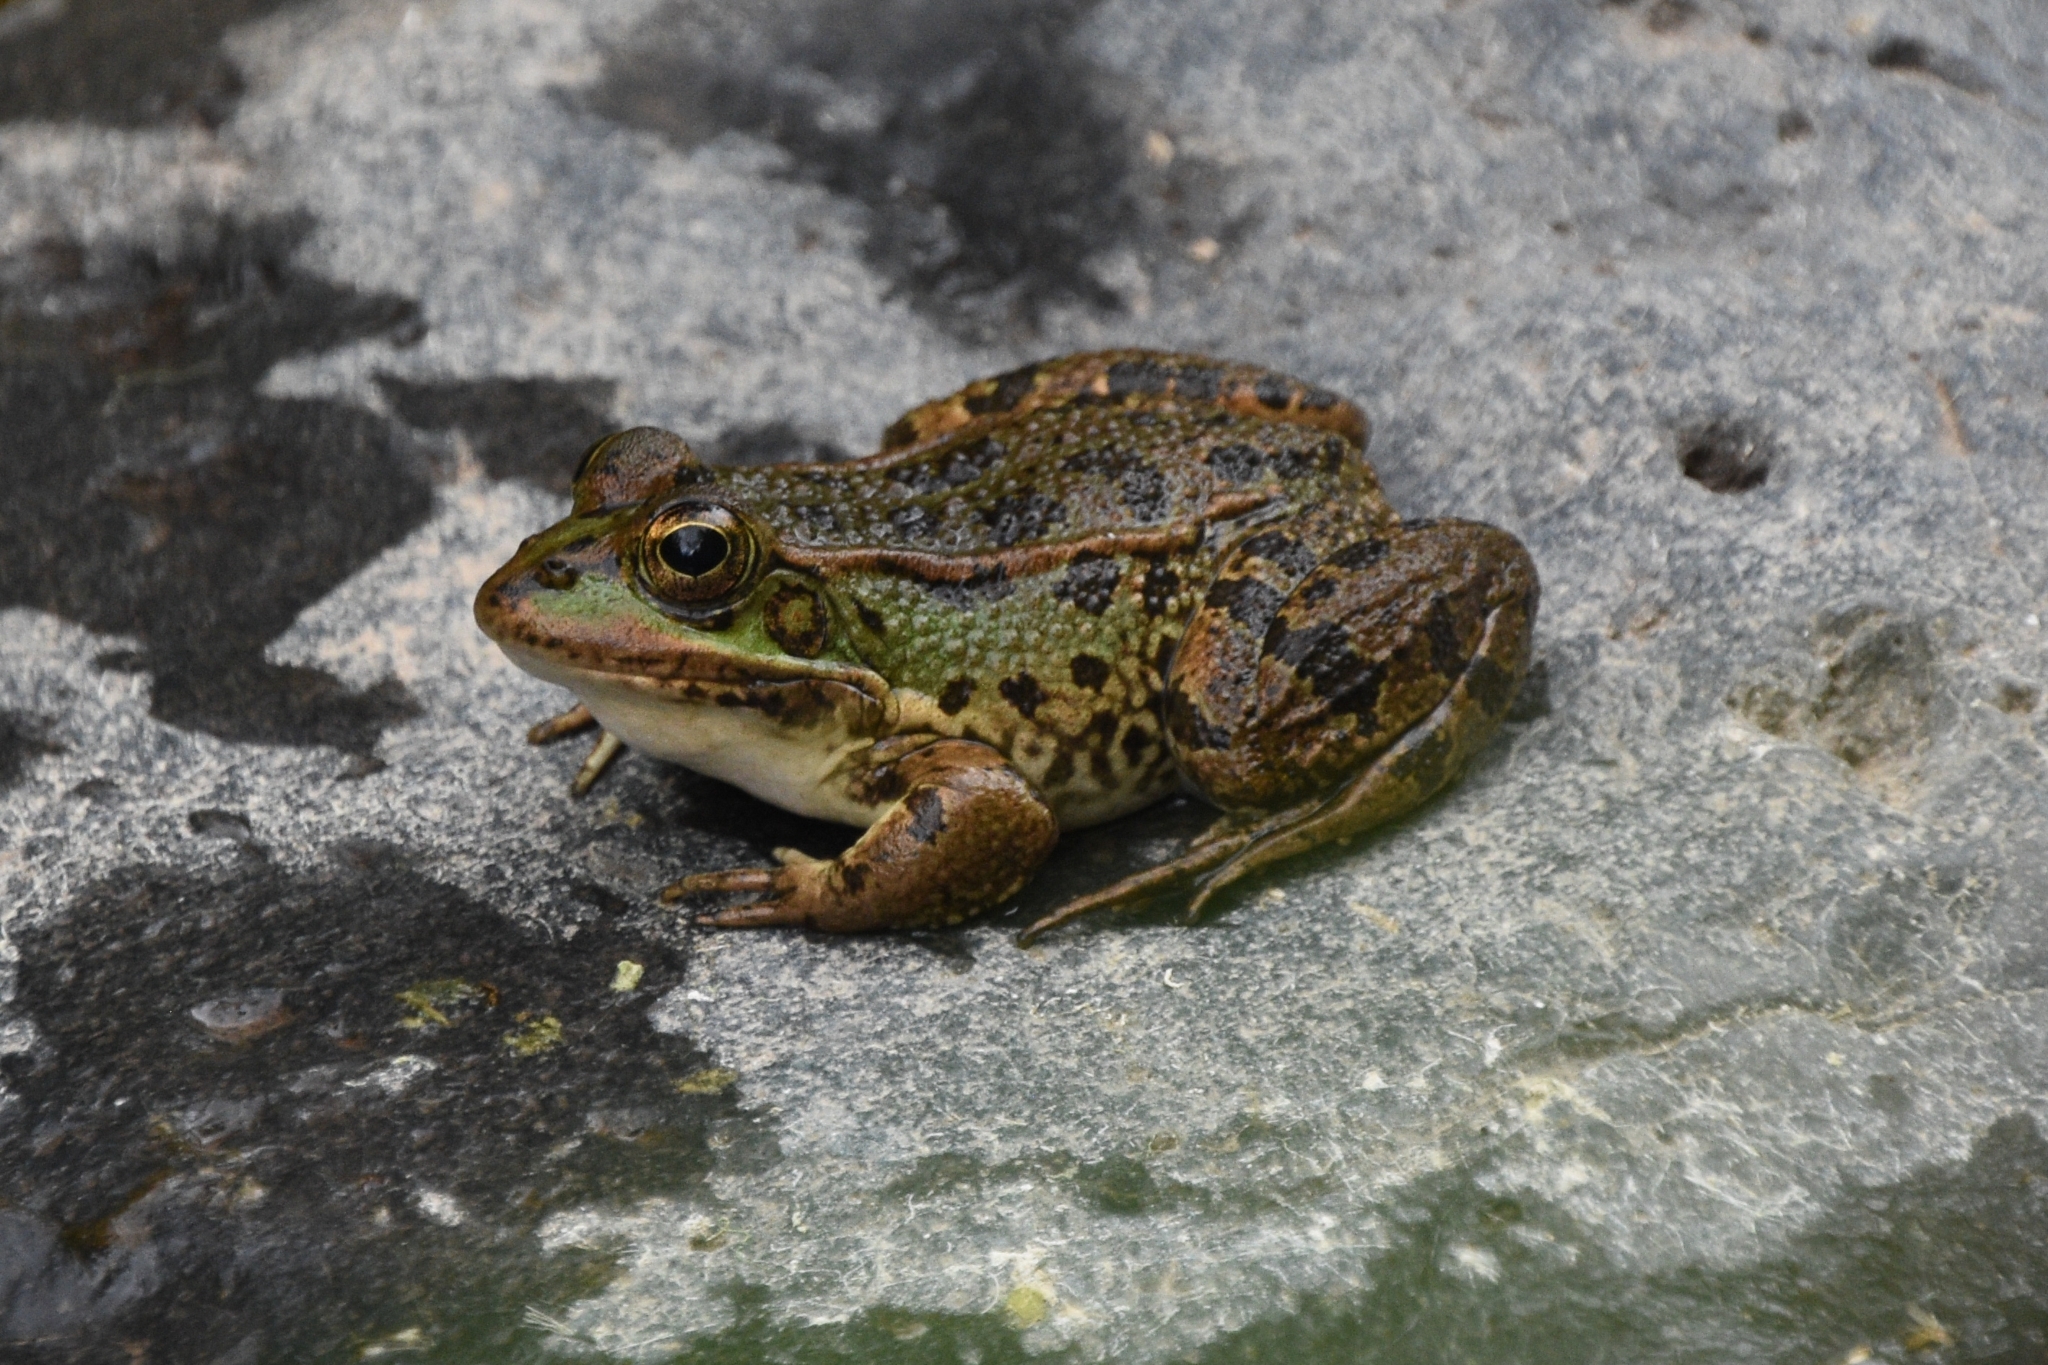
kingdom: Animalia
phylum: Chordata
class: Amphibia
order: Anura
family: Ranidae
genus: Pelophylax
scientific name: Pelophylax perezi
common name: Perez's frog
